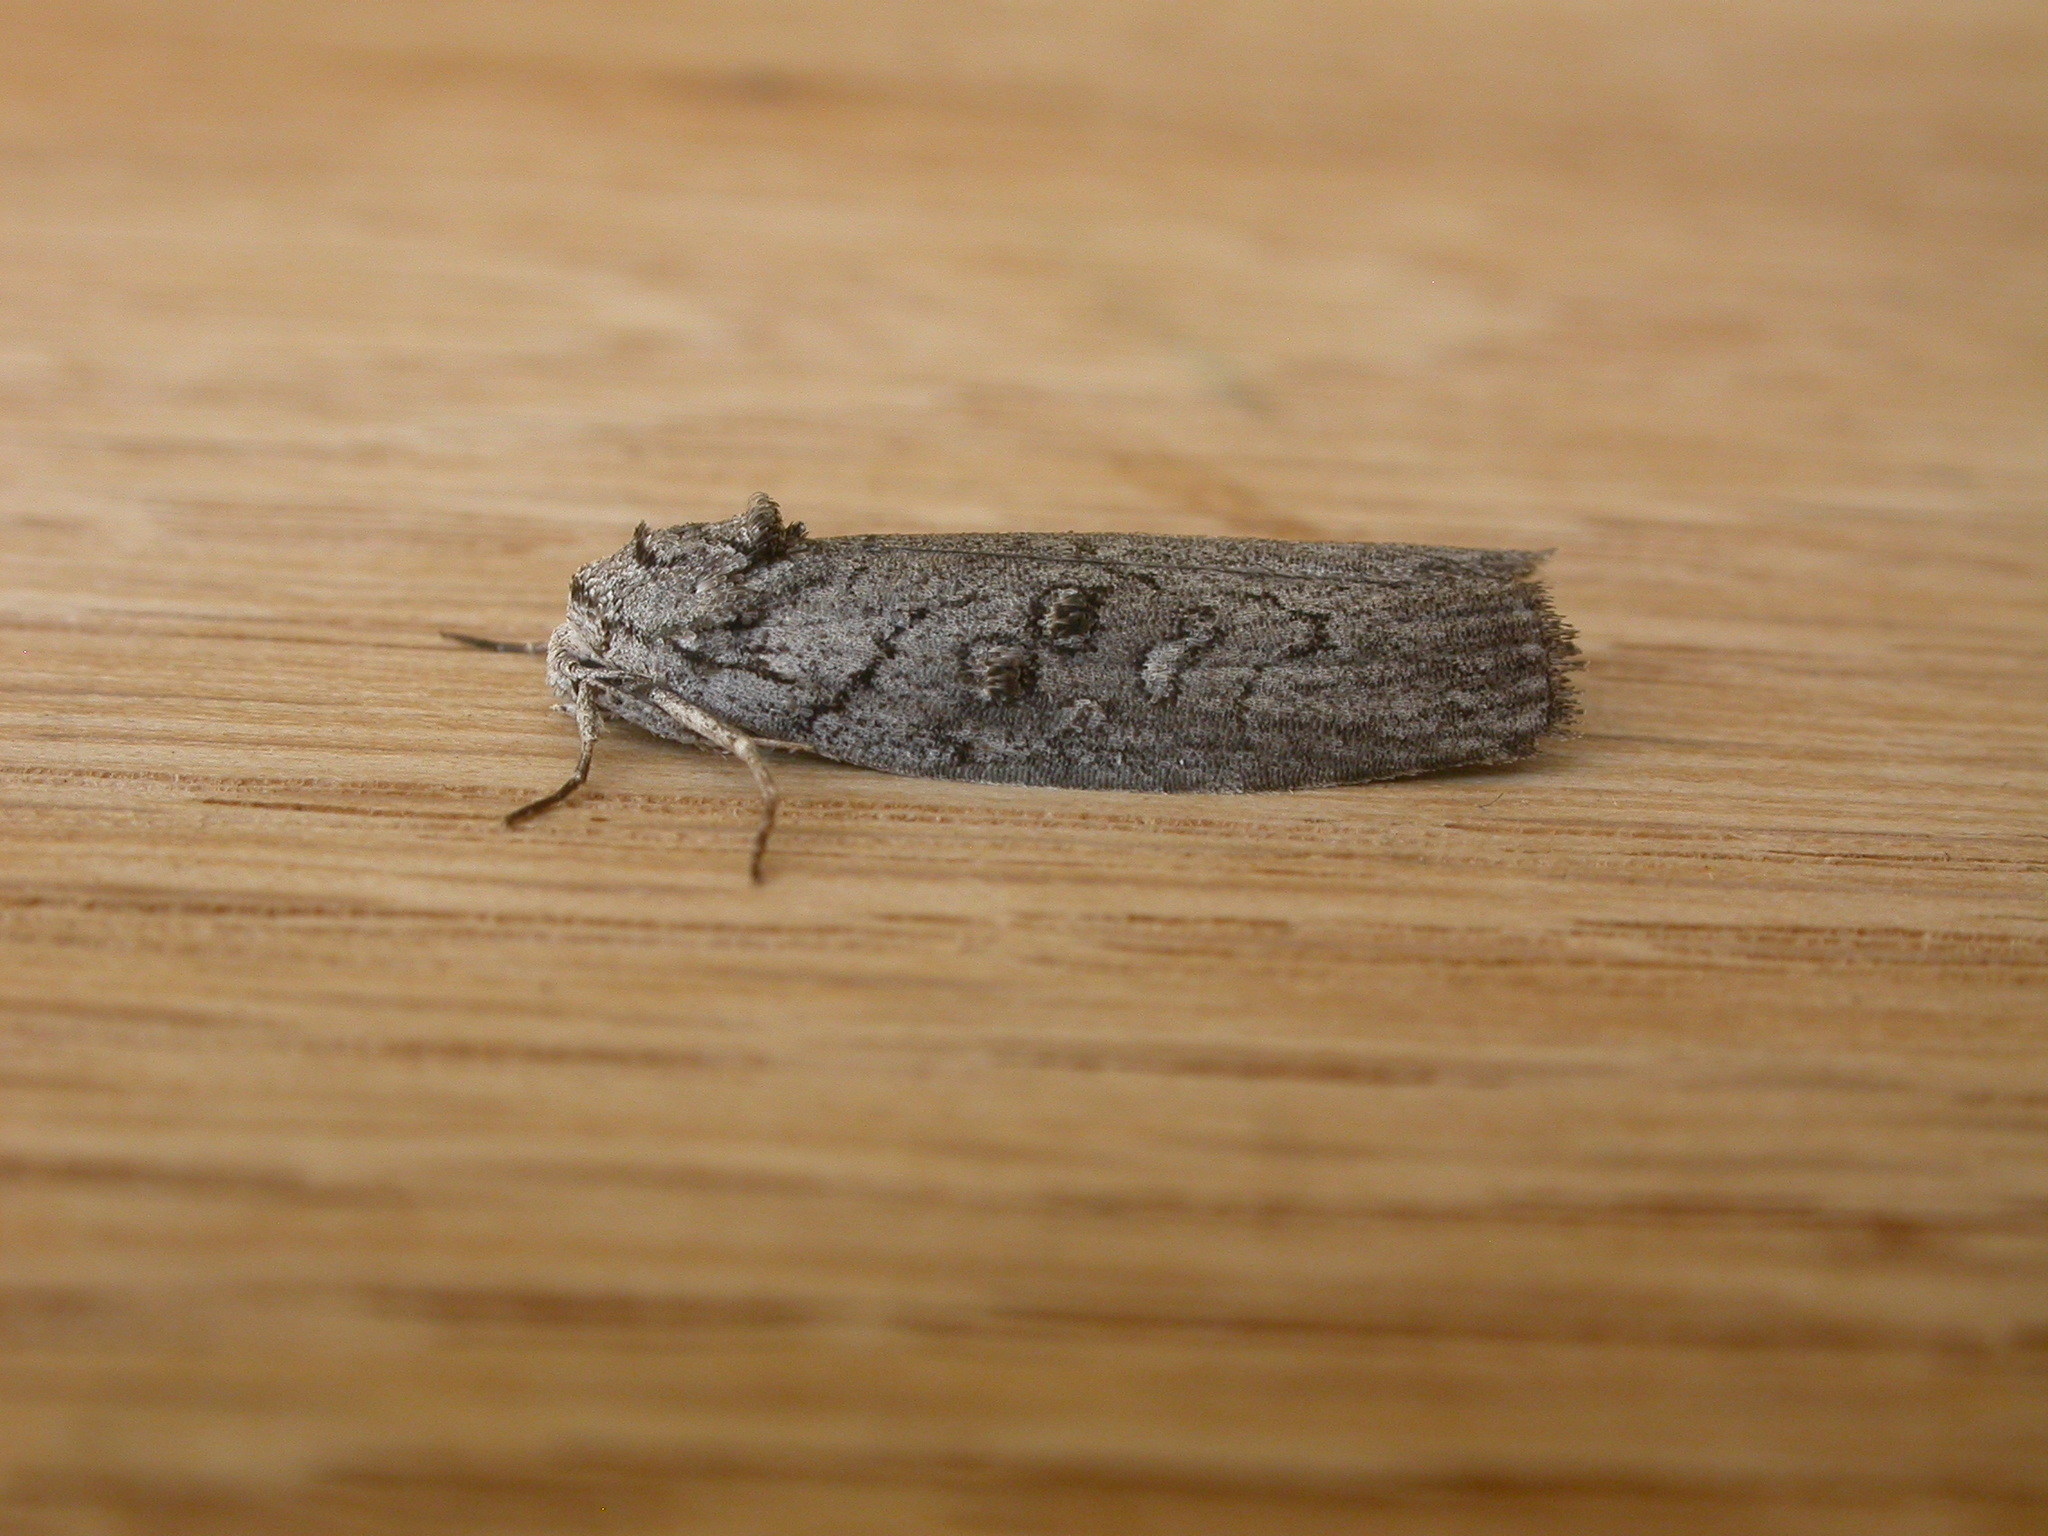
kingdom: Animalia
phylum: Arthropoda
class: Insecta
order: Lepidoptera
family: Nolidae
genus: Elesma
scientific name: Elesma subglauca
